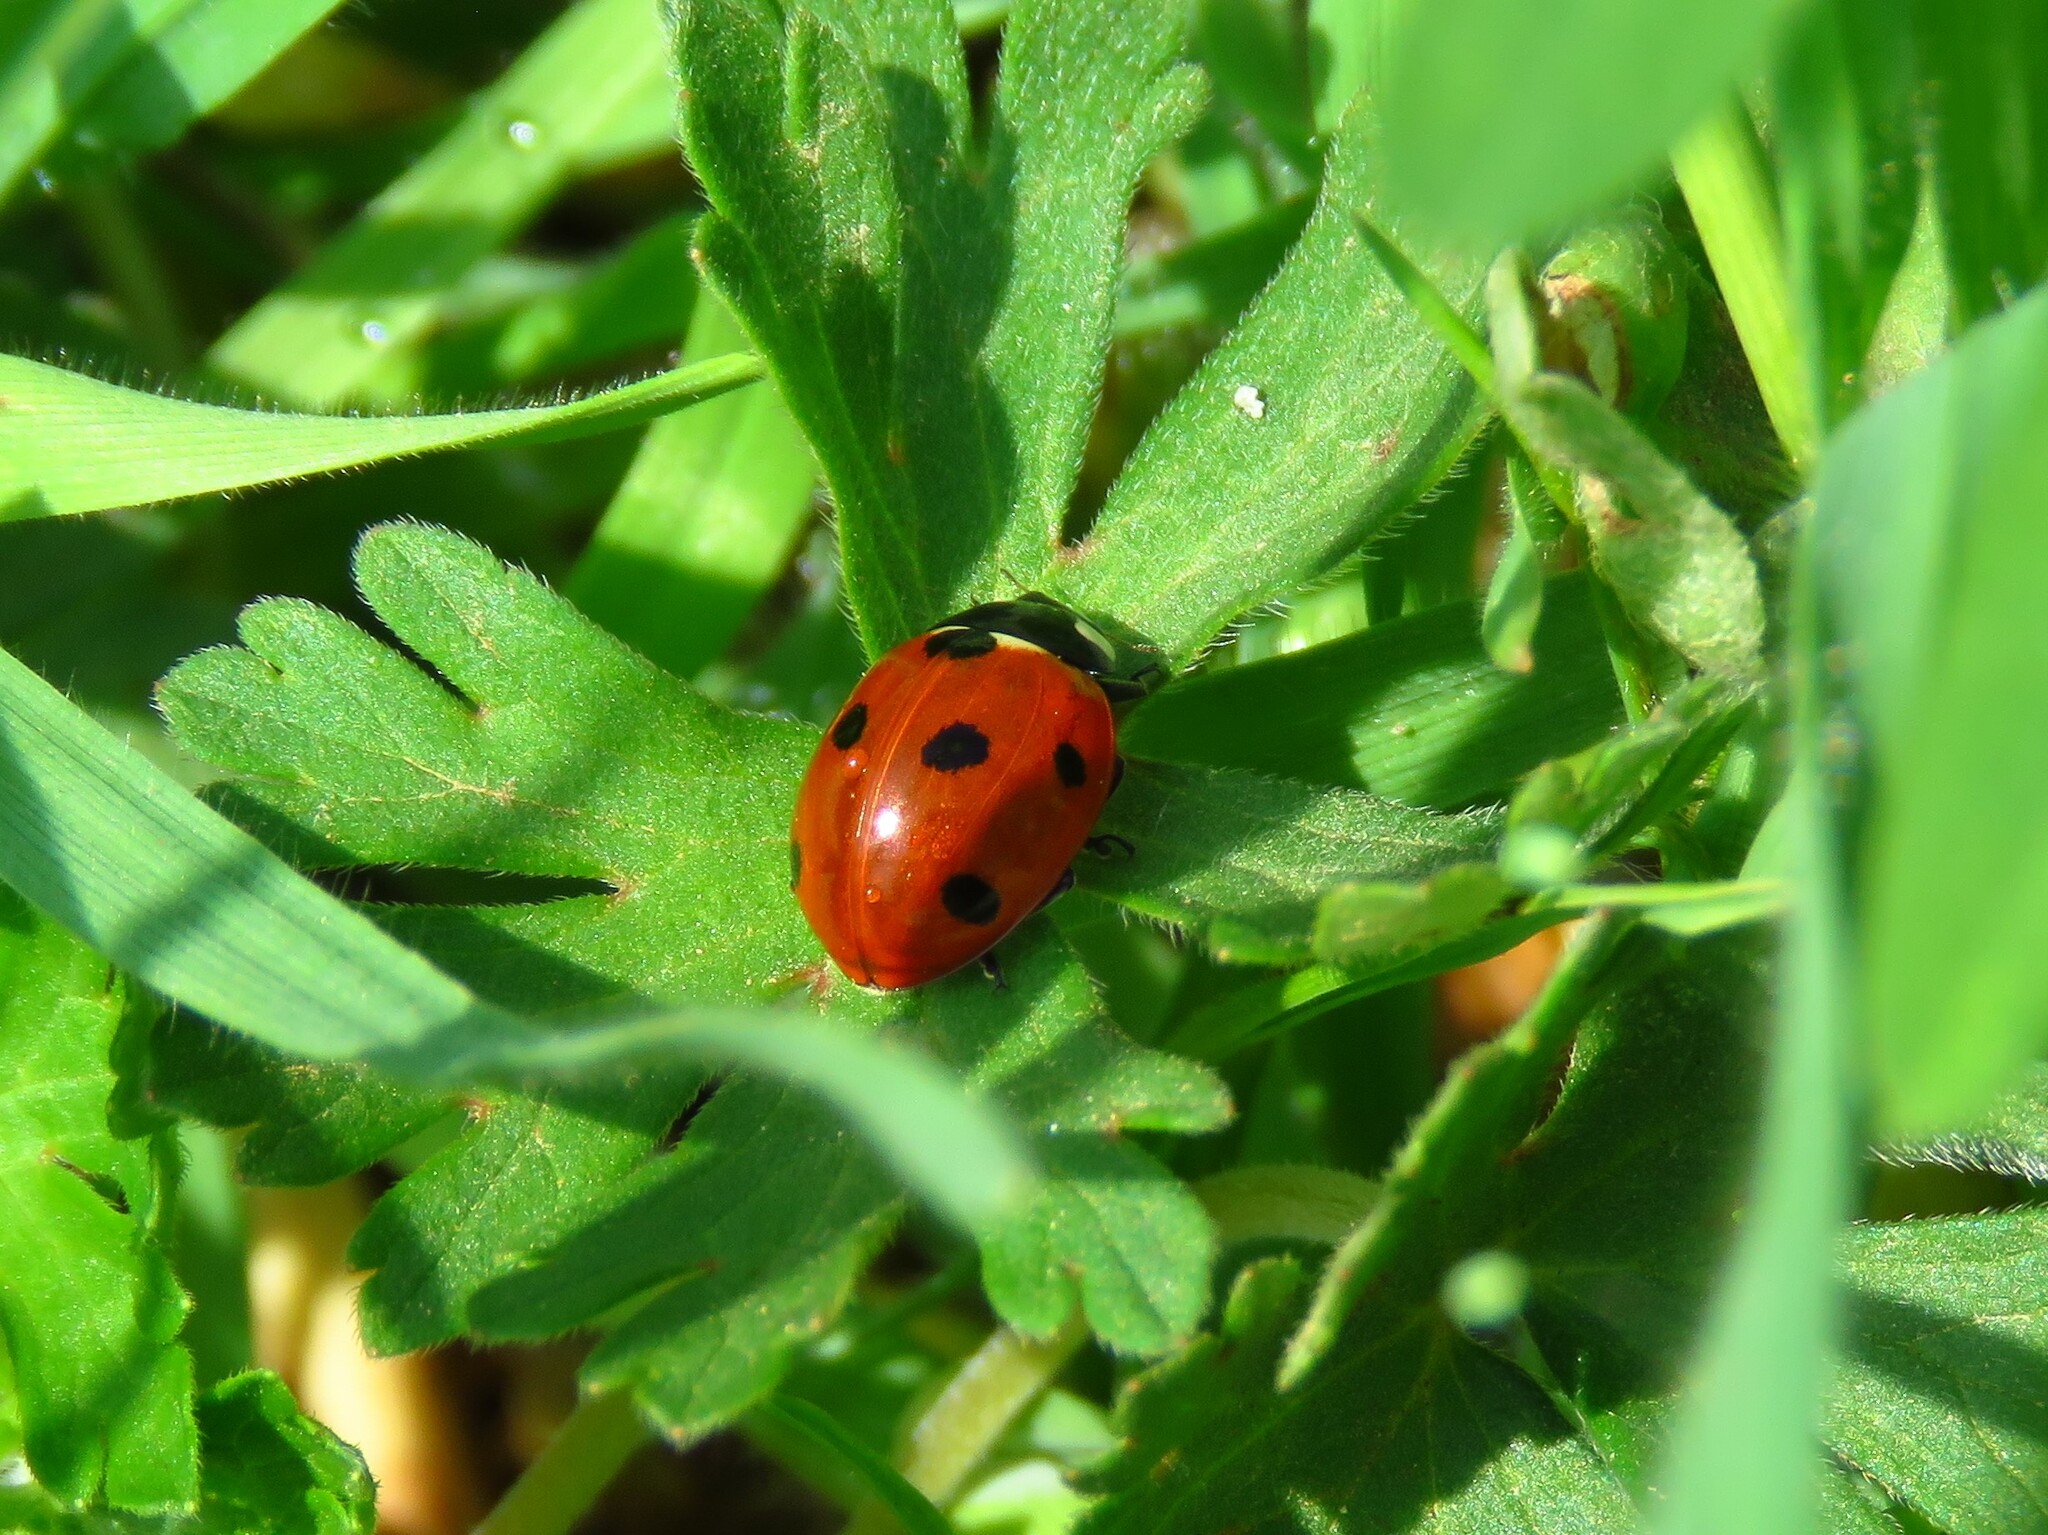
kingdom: Animalia
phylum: Arthropoda
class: Insecta
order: Coleoptera
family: Coccinellidae
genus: Coccinella
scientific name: Coccinella septempunctata
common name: Sevenspotted lady beetle
